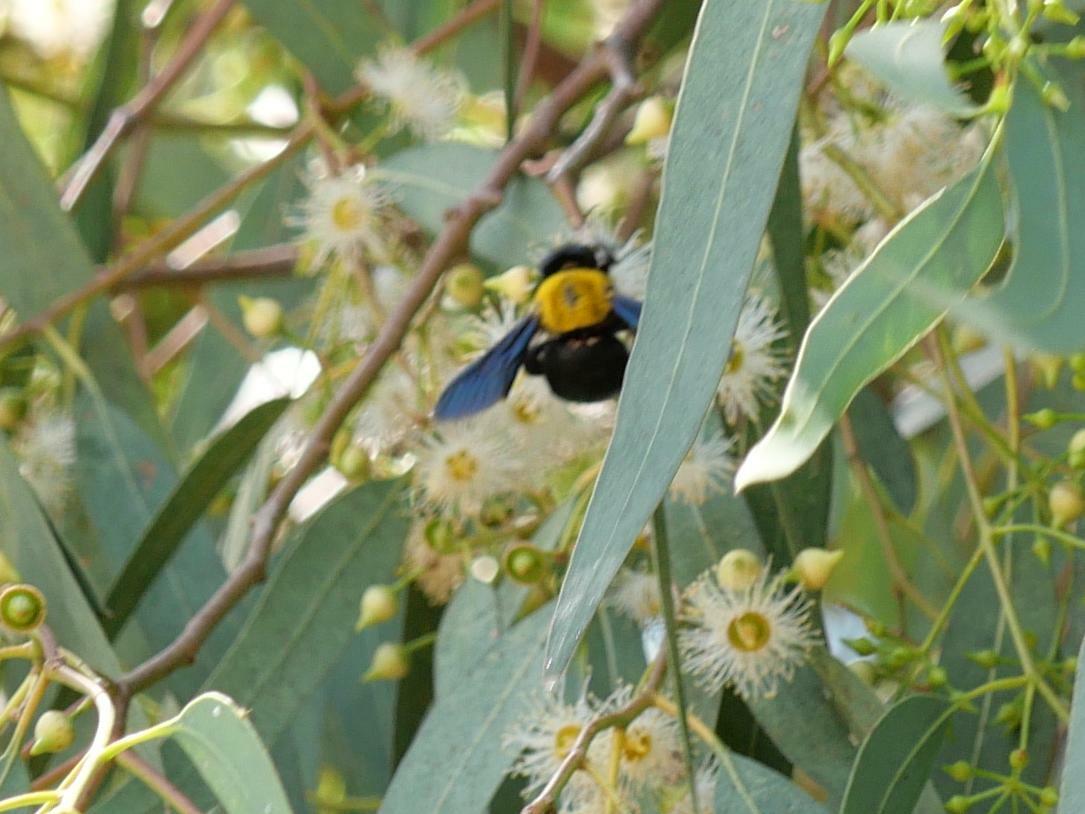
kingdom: Animalia
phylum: Arthropoda
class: Insecta
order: Hymenoptera
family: Apidae
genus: Xylocopa
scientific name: Xylocopa pubescens
